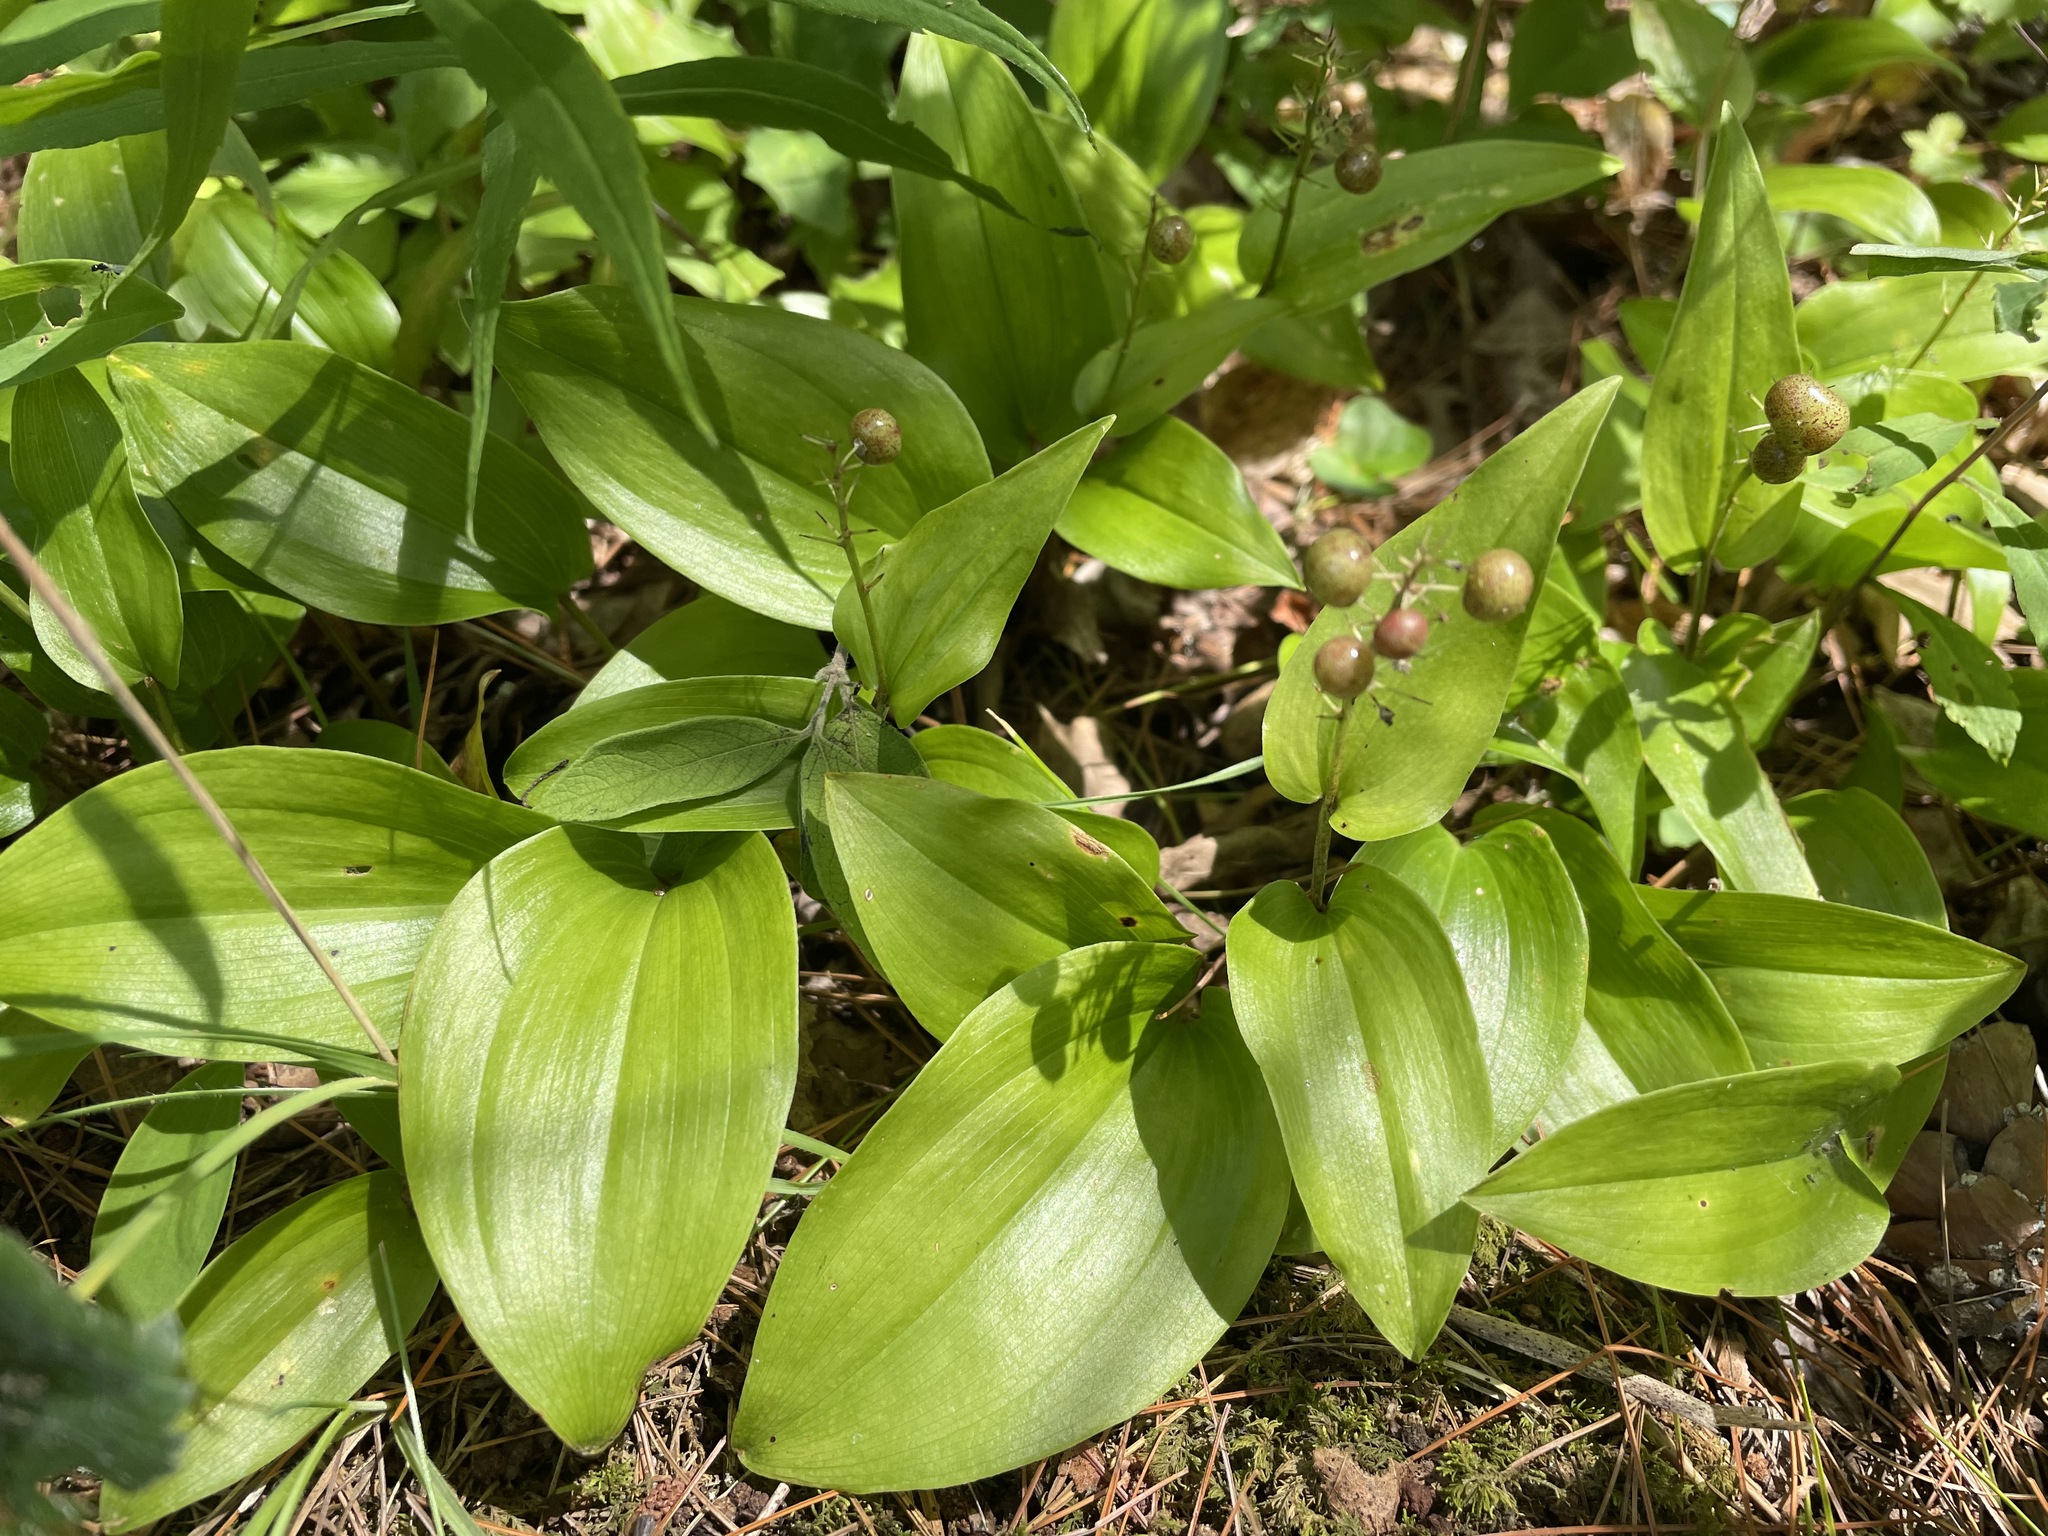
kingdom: Plantae
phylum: Tracheophyta
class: Liliopsida
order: Asparagales
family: Asparagaceae
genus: Maianthemum
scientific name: Maianthemum canadense
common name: False lily-of-the-valley
